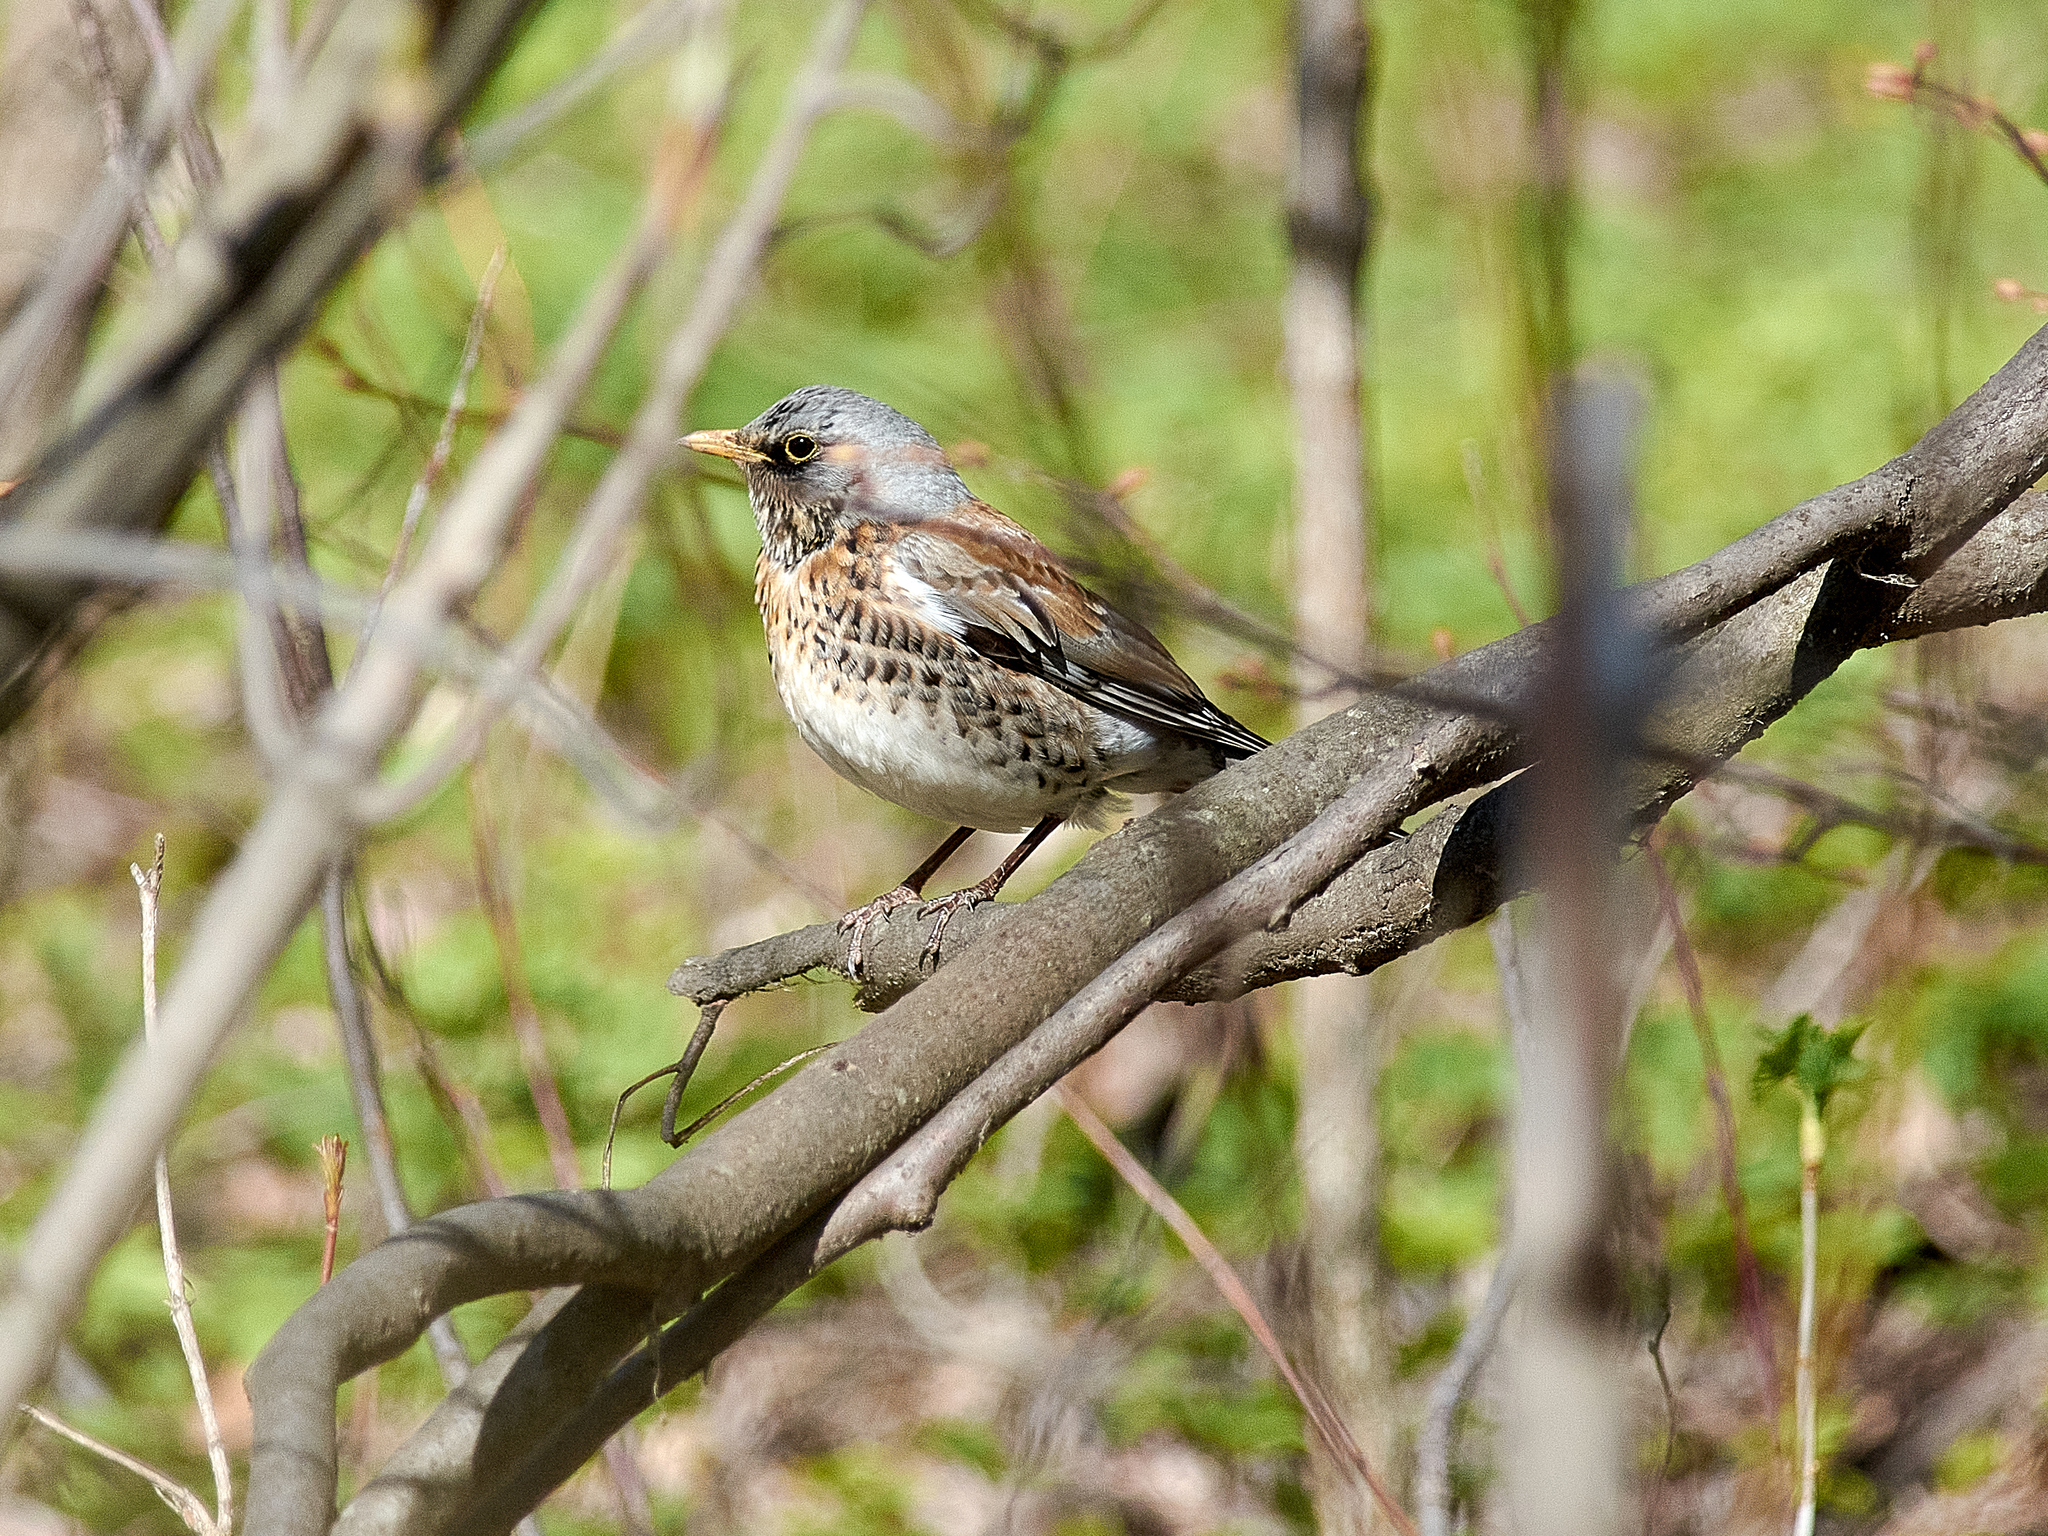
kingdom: Animalia
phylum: Chordata
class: Aves
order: Passeriformes
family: Turdidae
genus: Turdus
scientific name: Turdus pilaris
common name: Fieldfare
